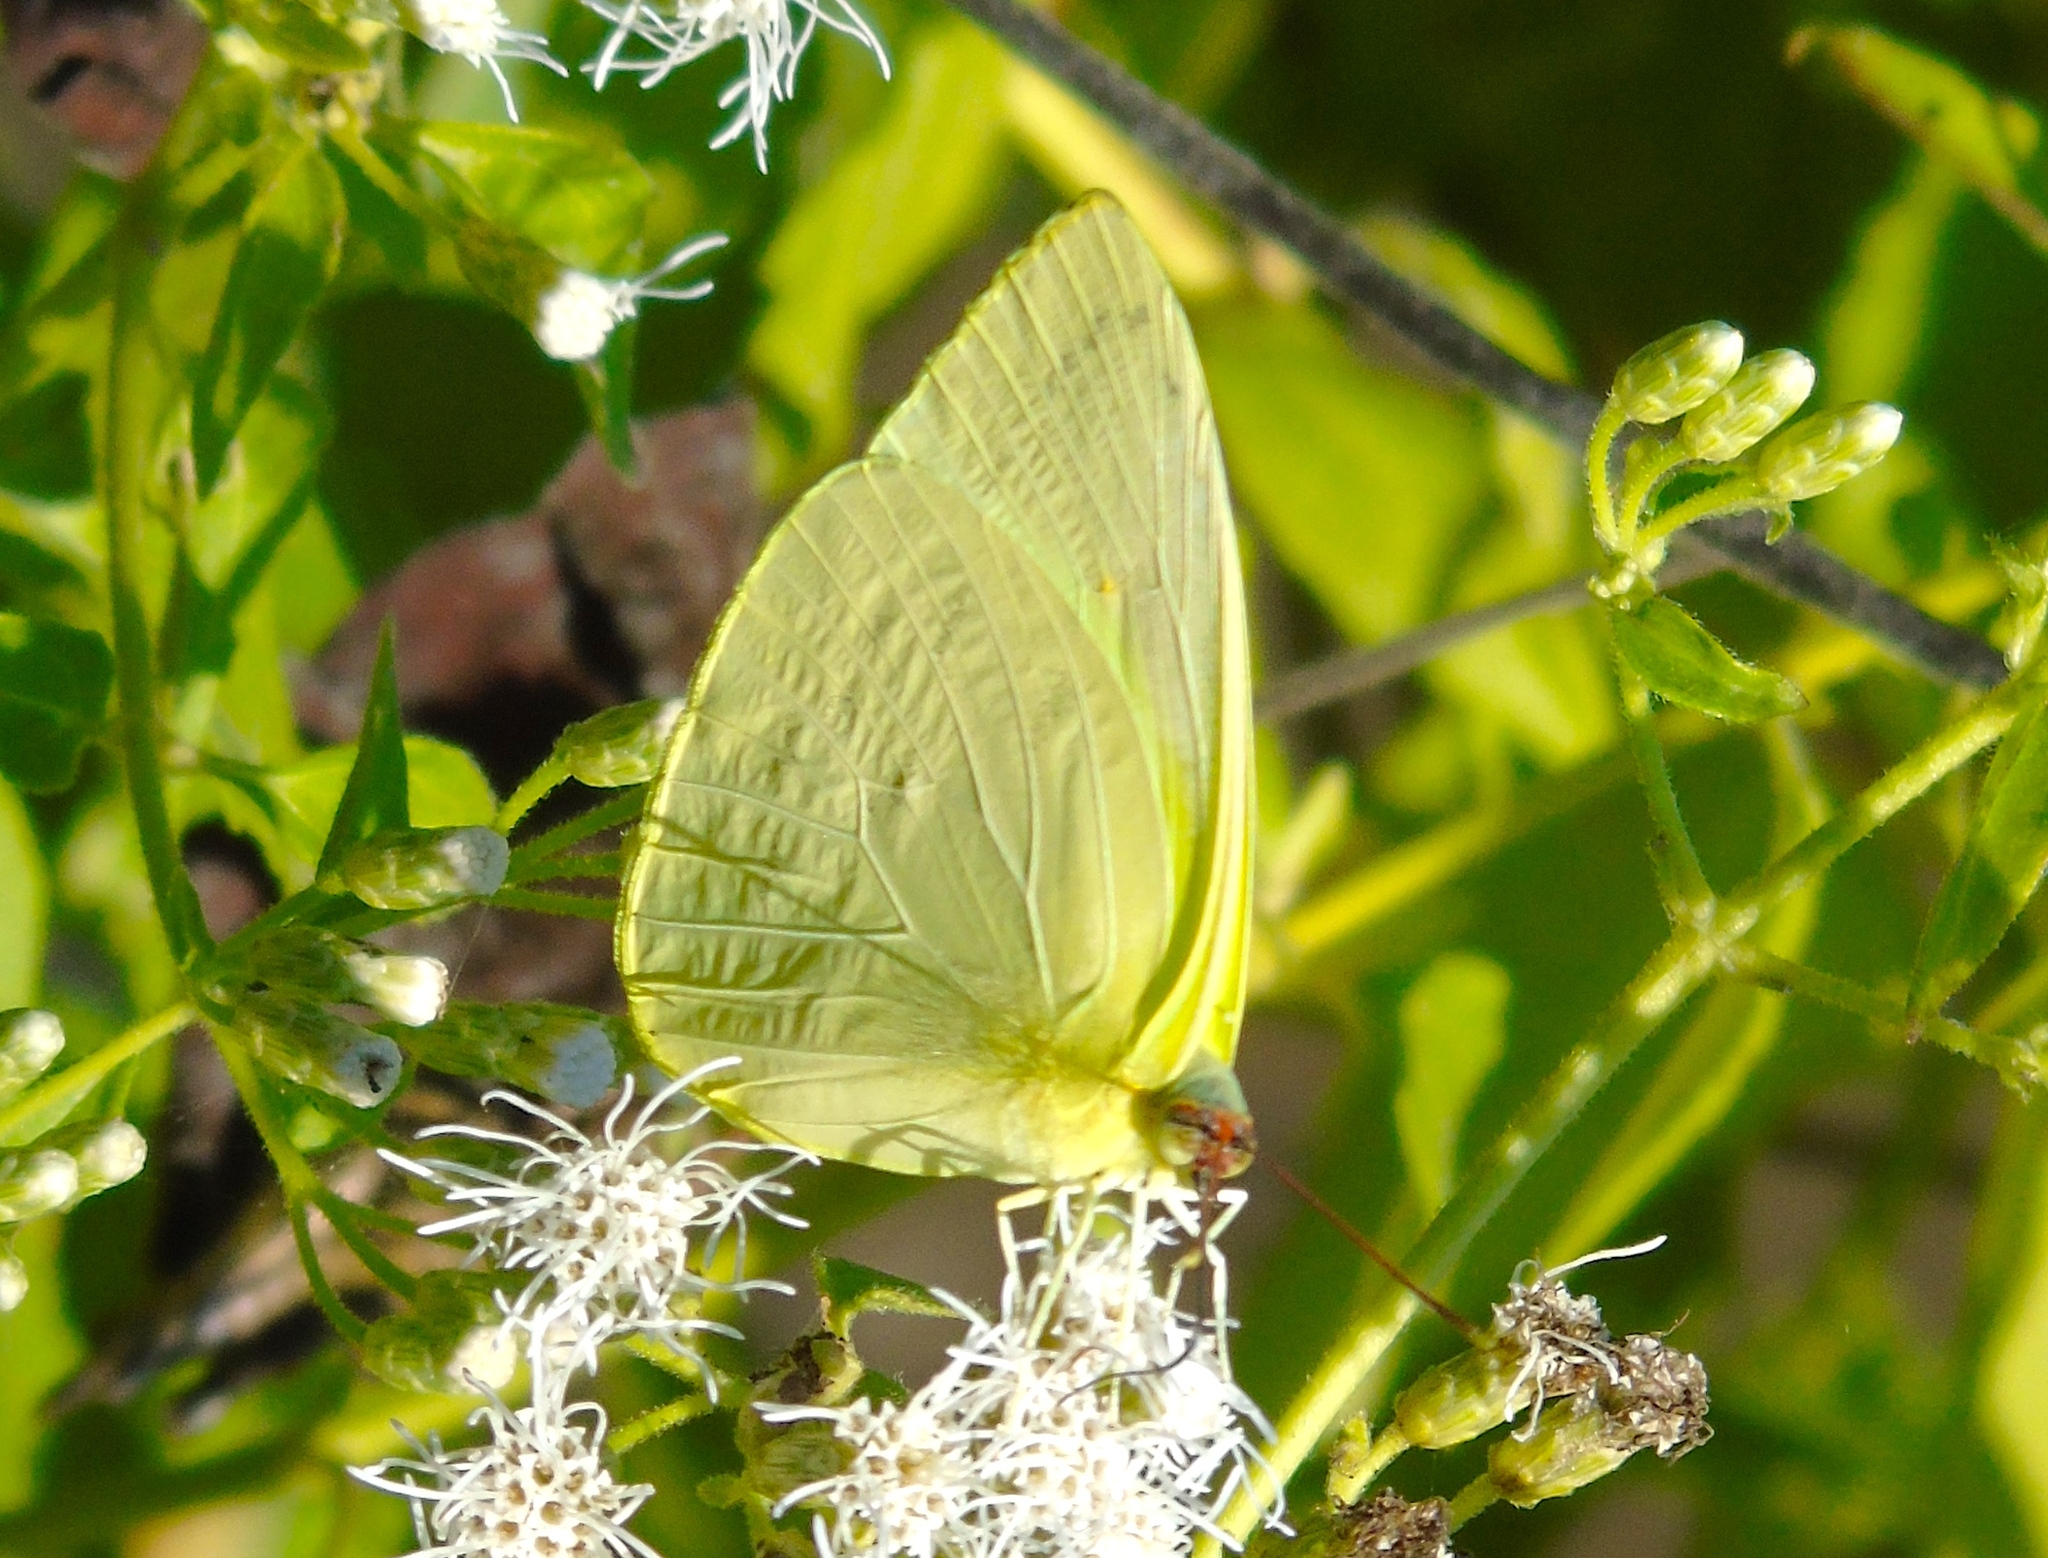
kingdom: Animalia
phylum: Arthropoda
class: Insecta
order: Lepidoptera
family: Pieridae
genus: Aphrissa
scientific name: Aphrissa statira
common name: Statira sulphur
